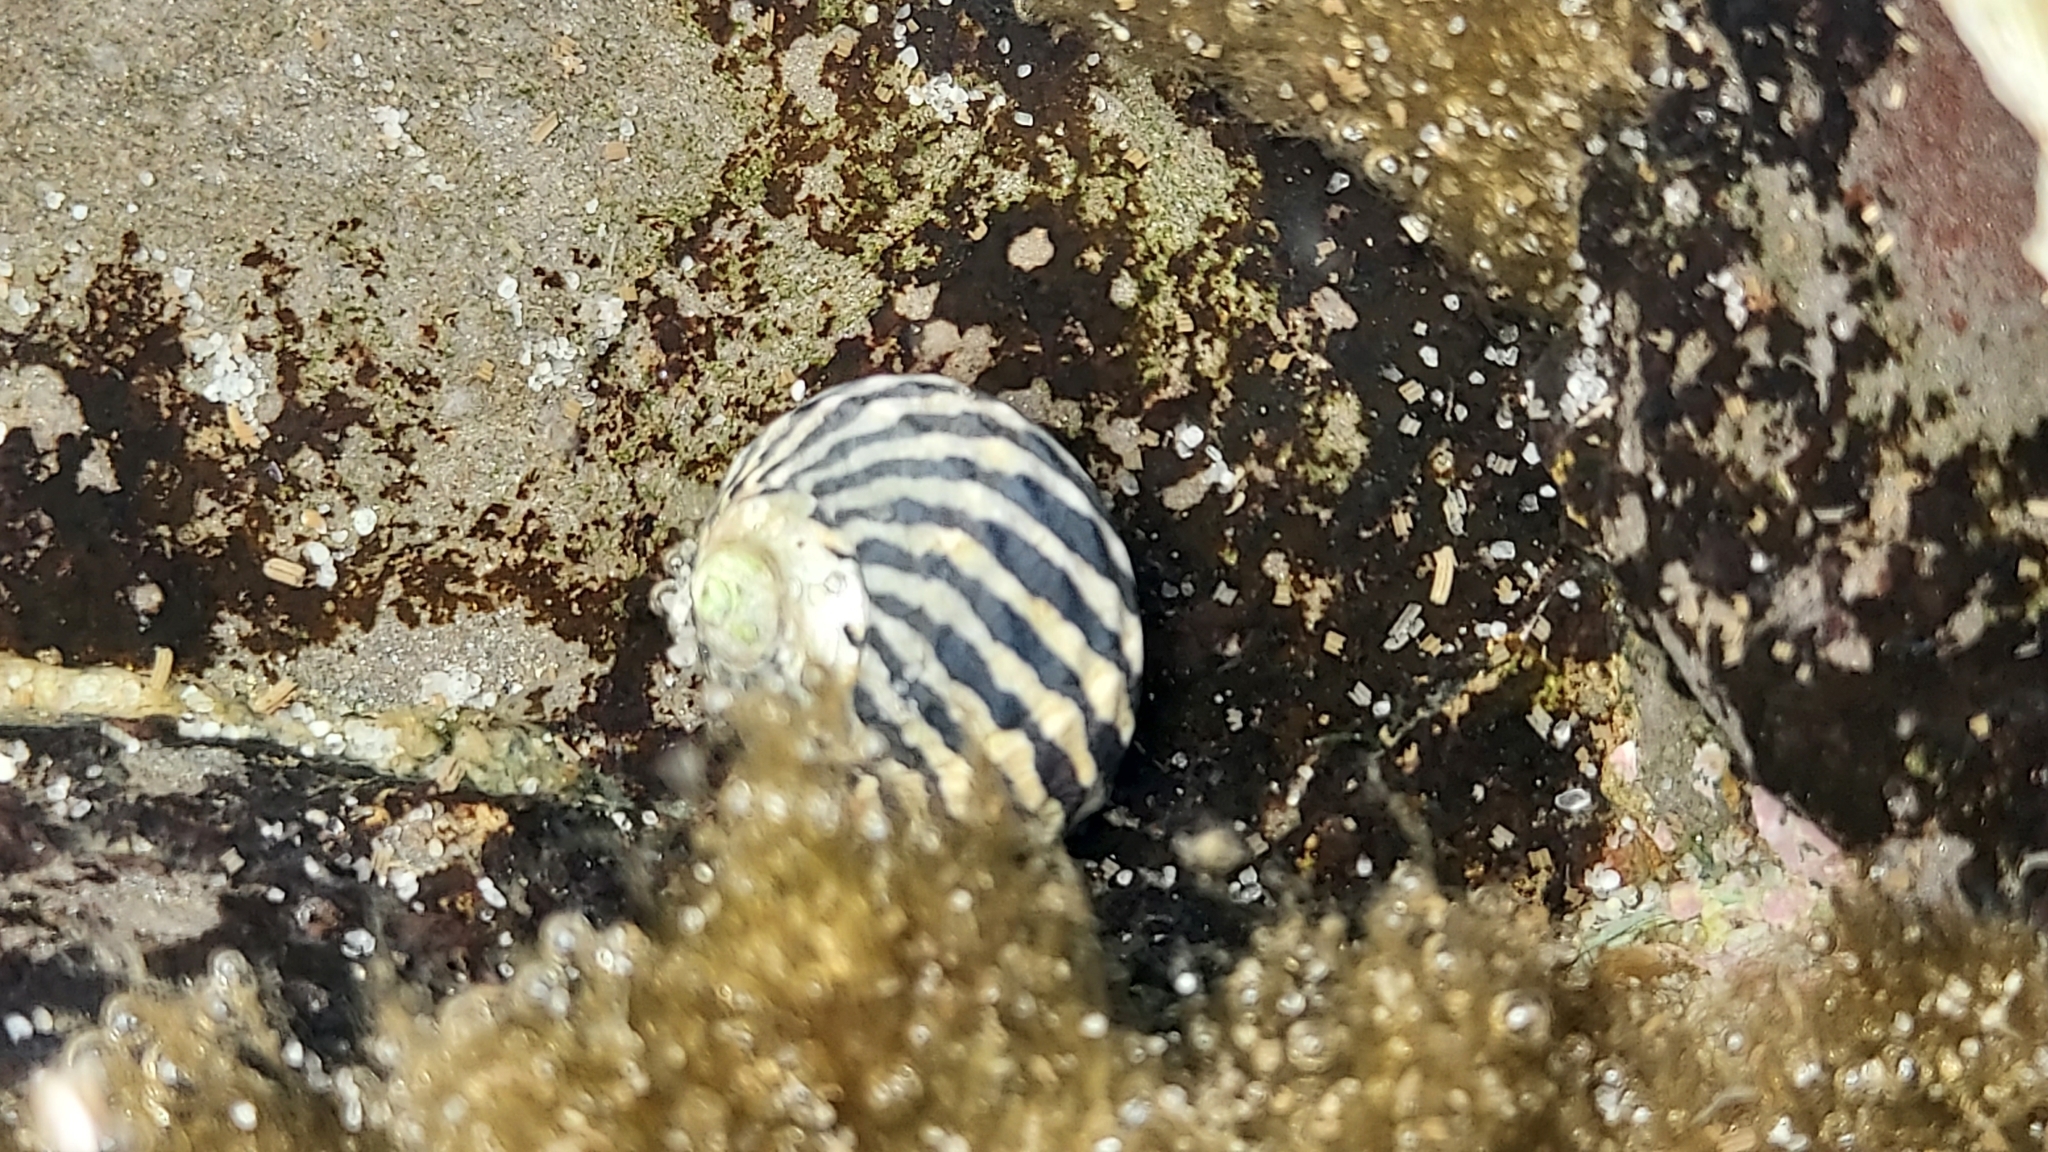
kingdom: Animalia
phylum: Mollusca
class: Gastropoda
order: Trochida
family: Trochidae
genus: Austrocochlea
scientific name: Austrocochlea porcata
